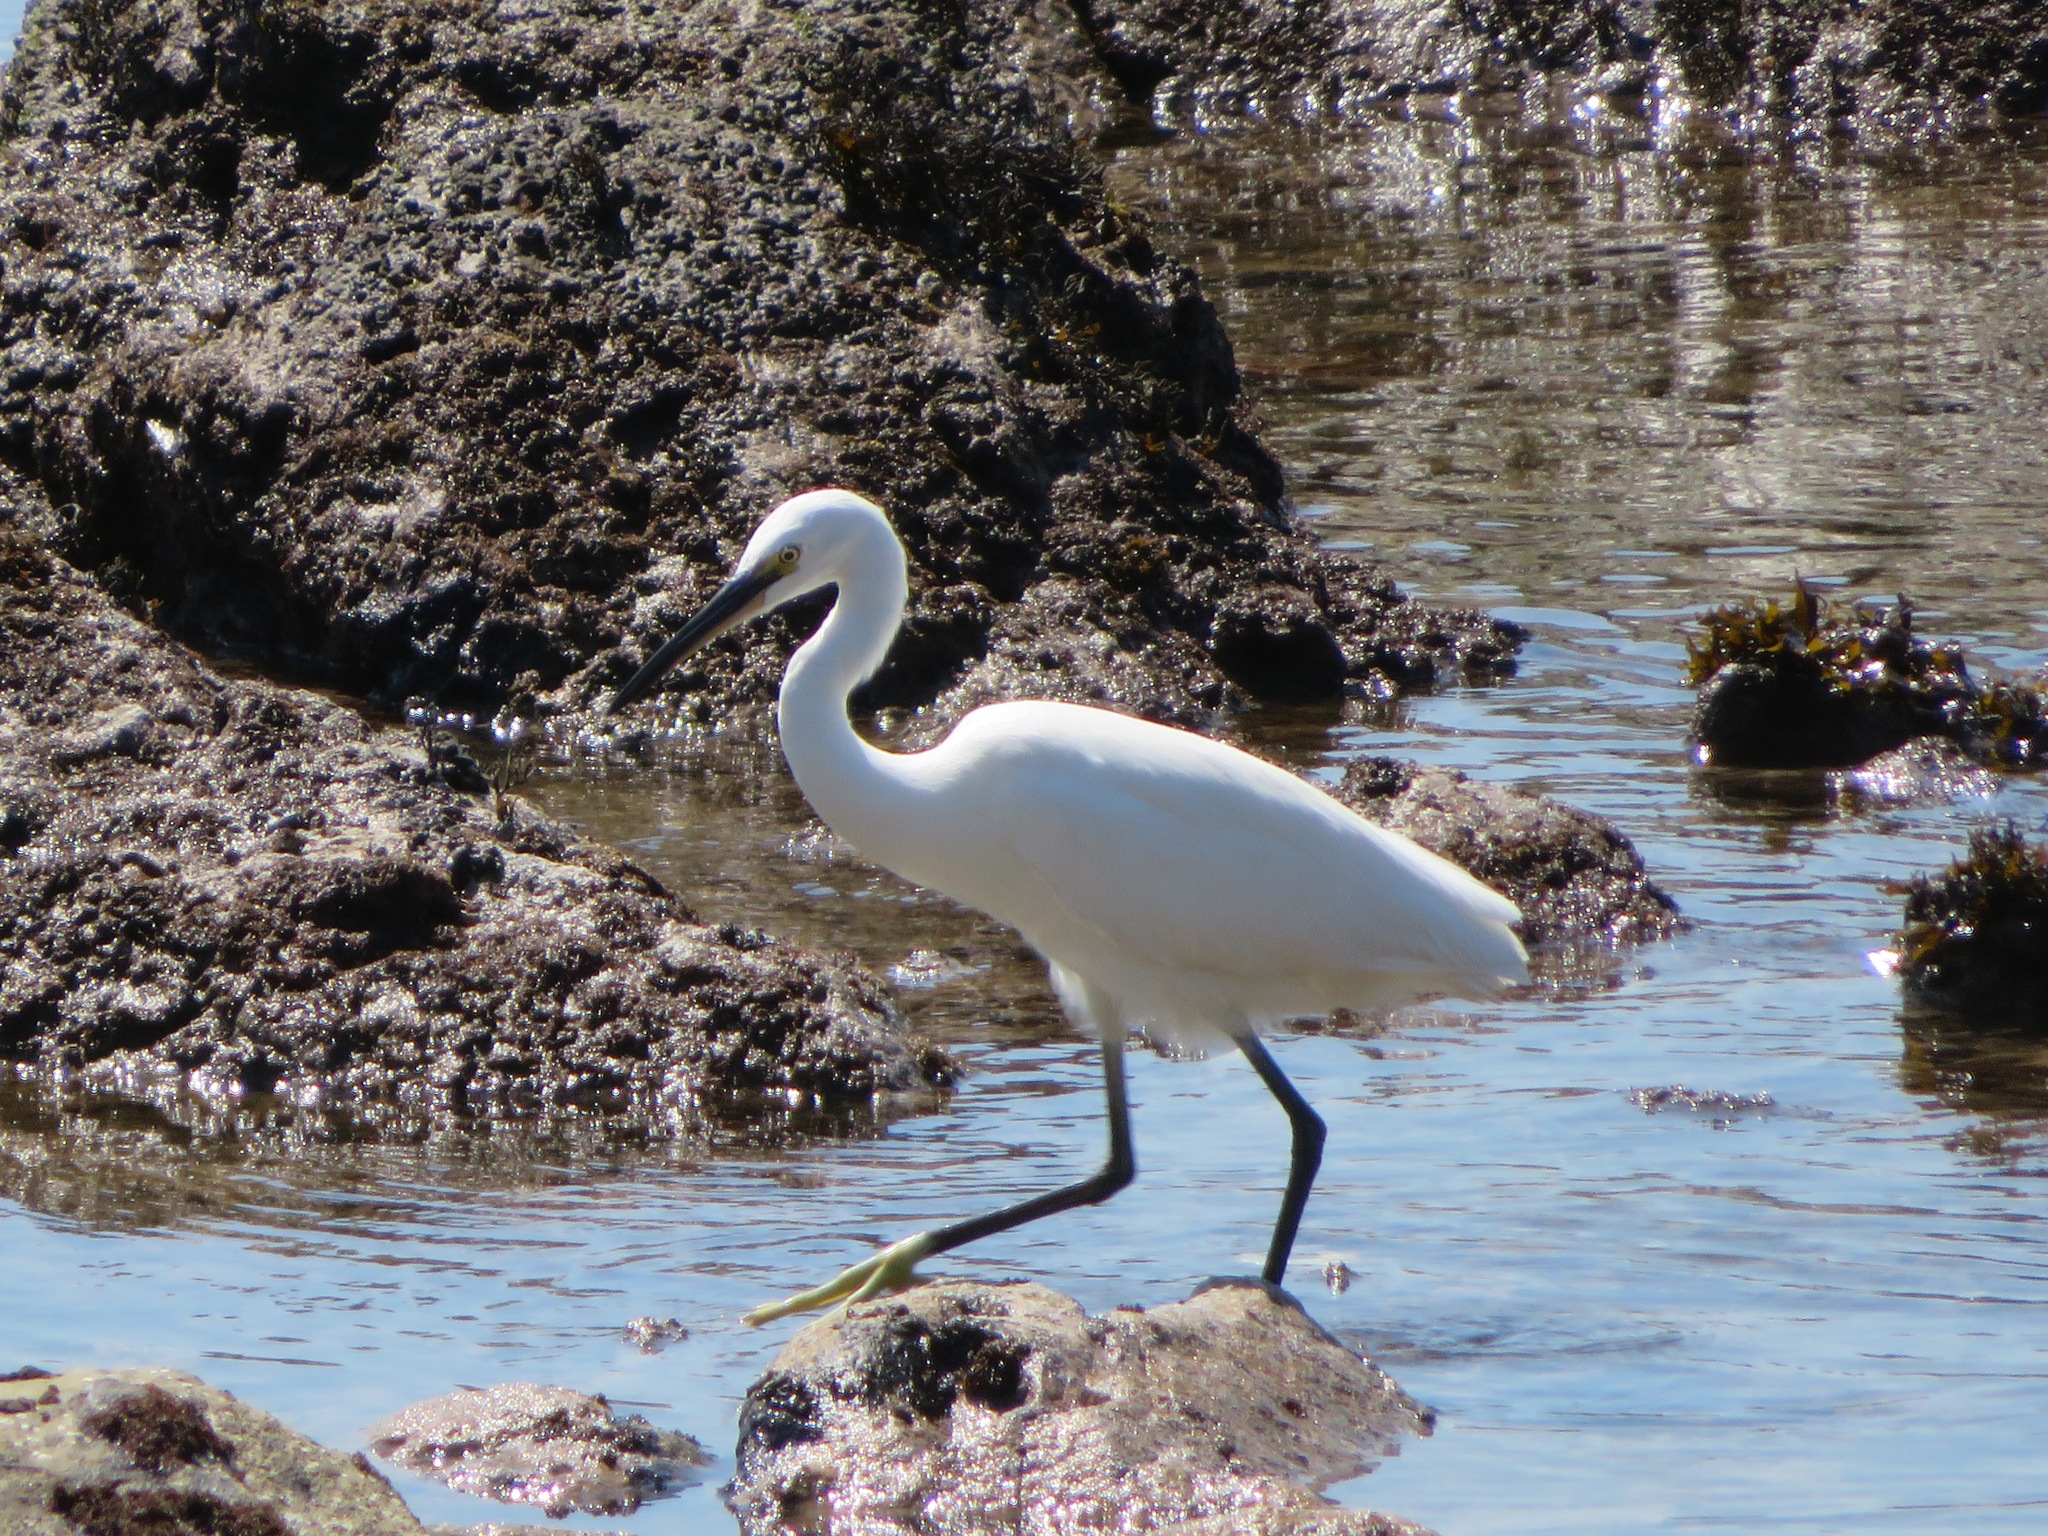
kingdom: Animalia
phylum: Chordata
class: Aves
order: Pelecaniformes
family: Ardeidae
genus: Egretta
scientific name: Egretta garzetta
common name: Little egret
